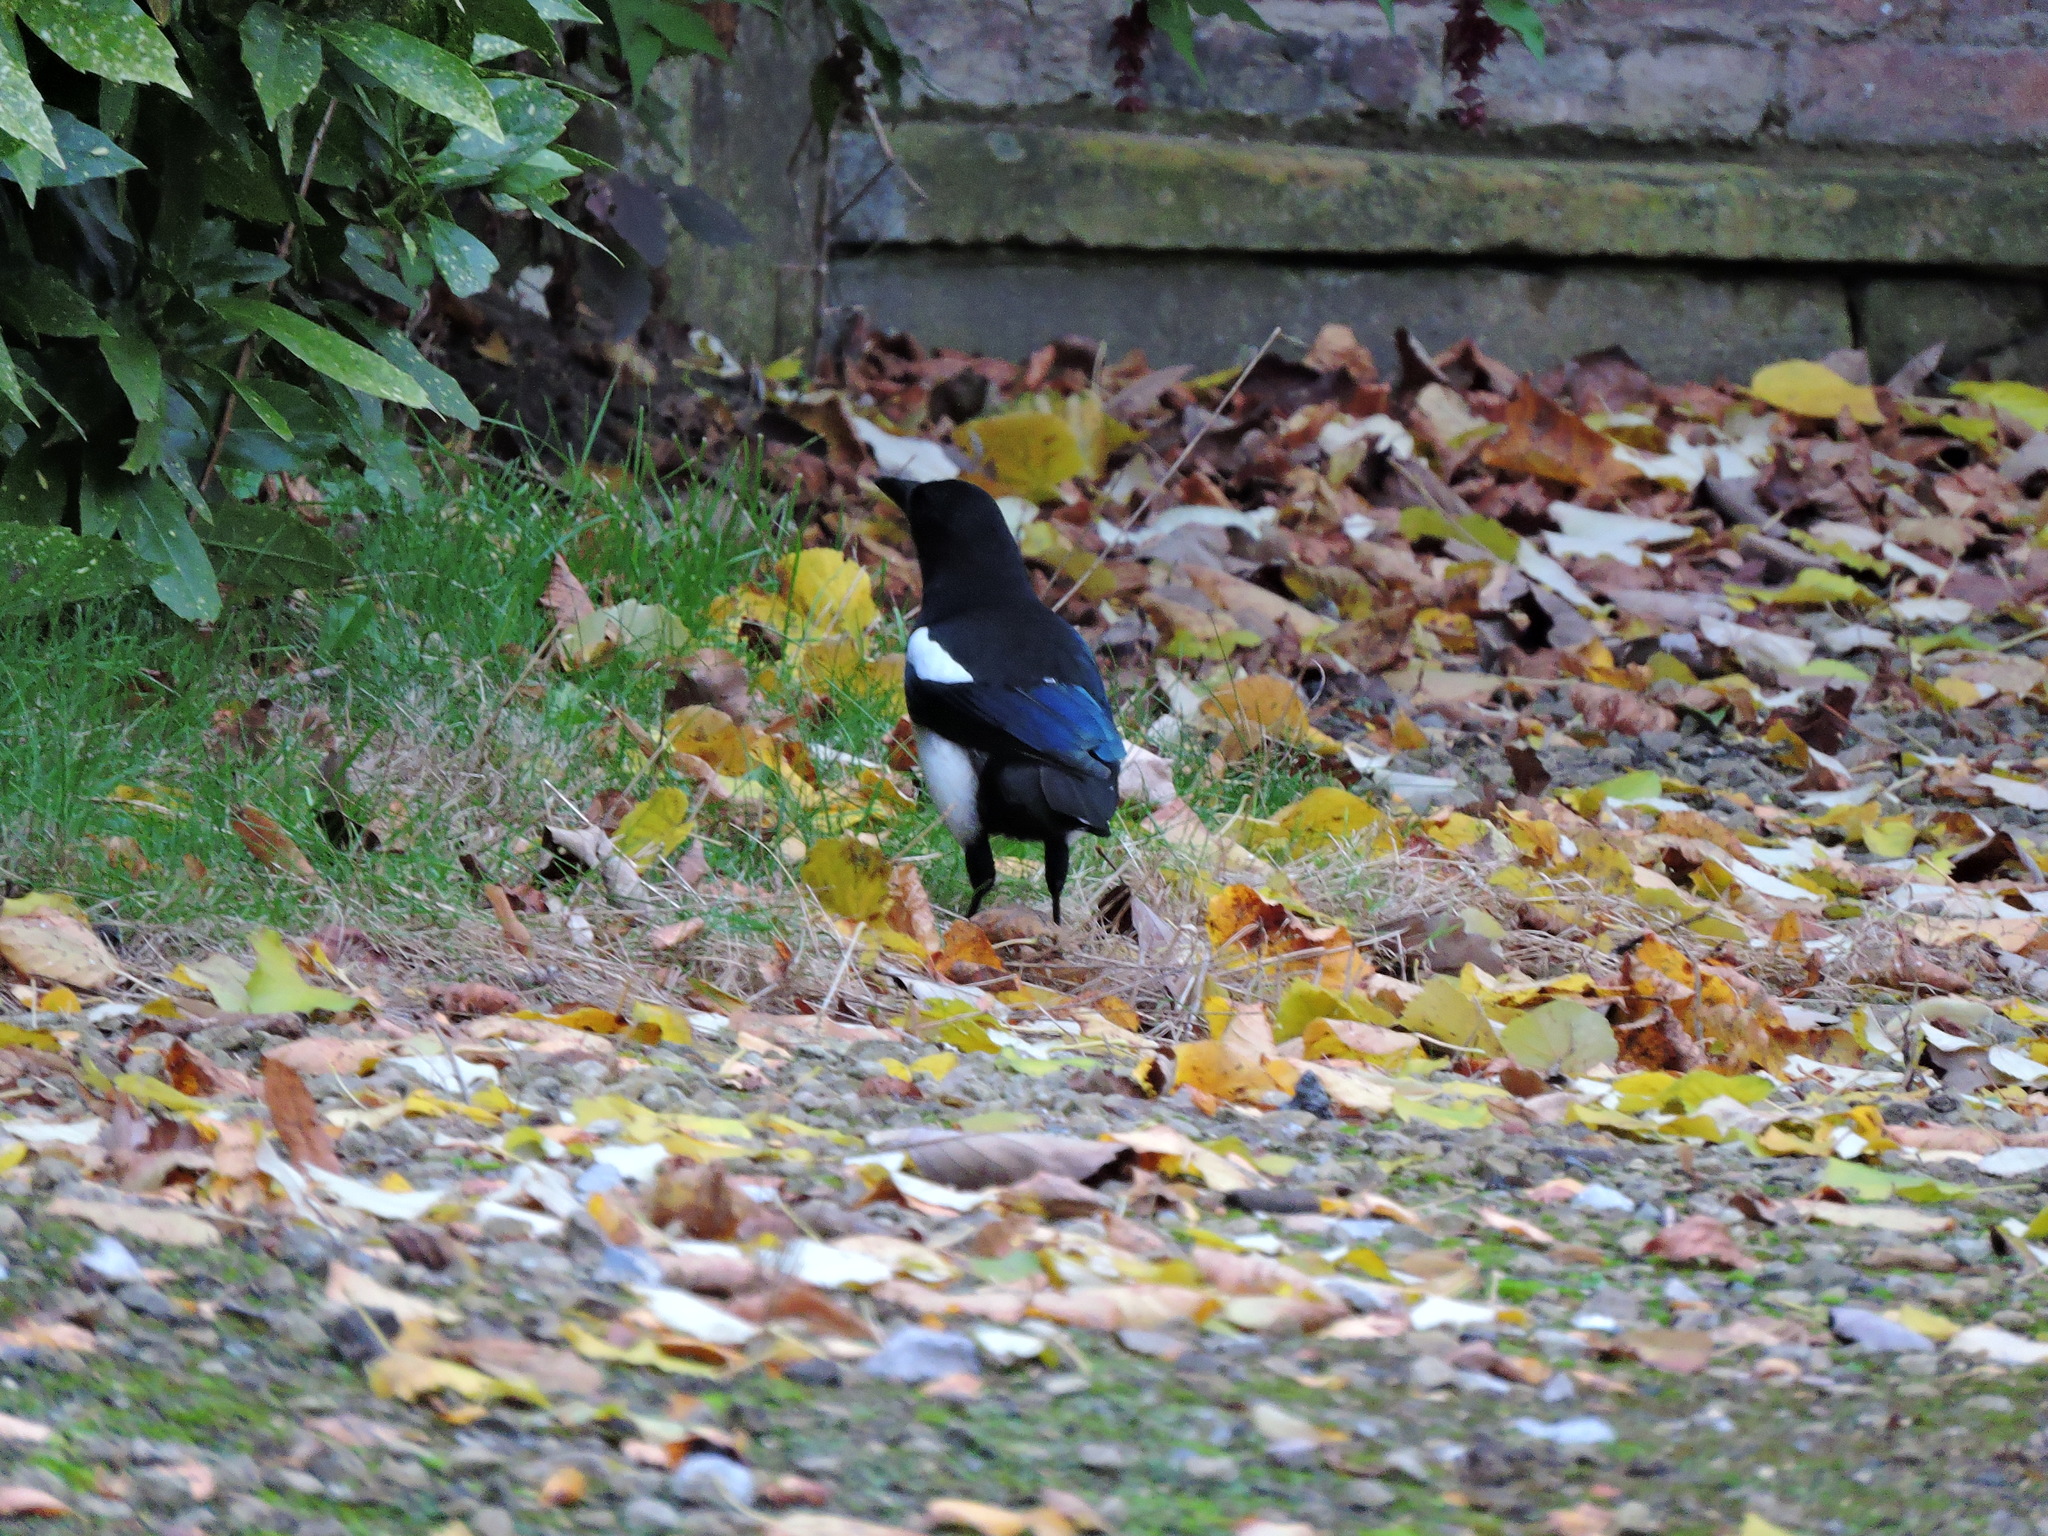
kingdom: Animalia
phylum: Chordata
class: Aves
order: Passeriformes
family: Corvidae
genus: Pica
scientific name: Pica pica
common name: Eurasian magpie
